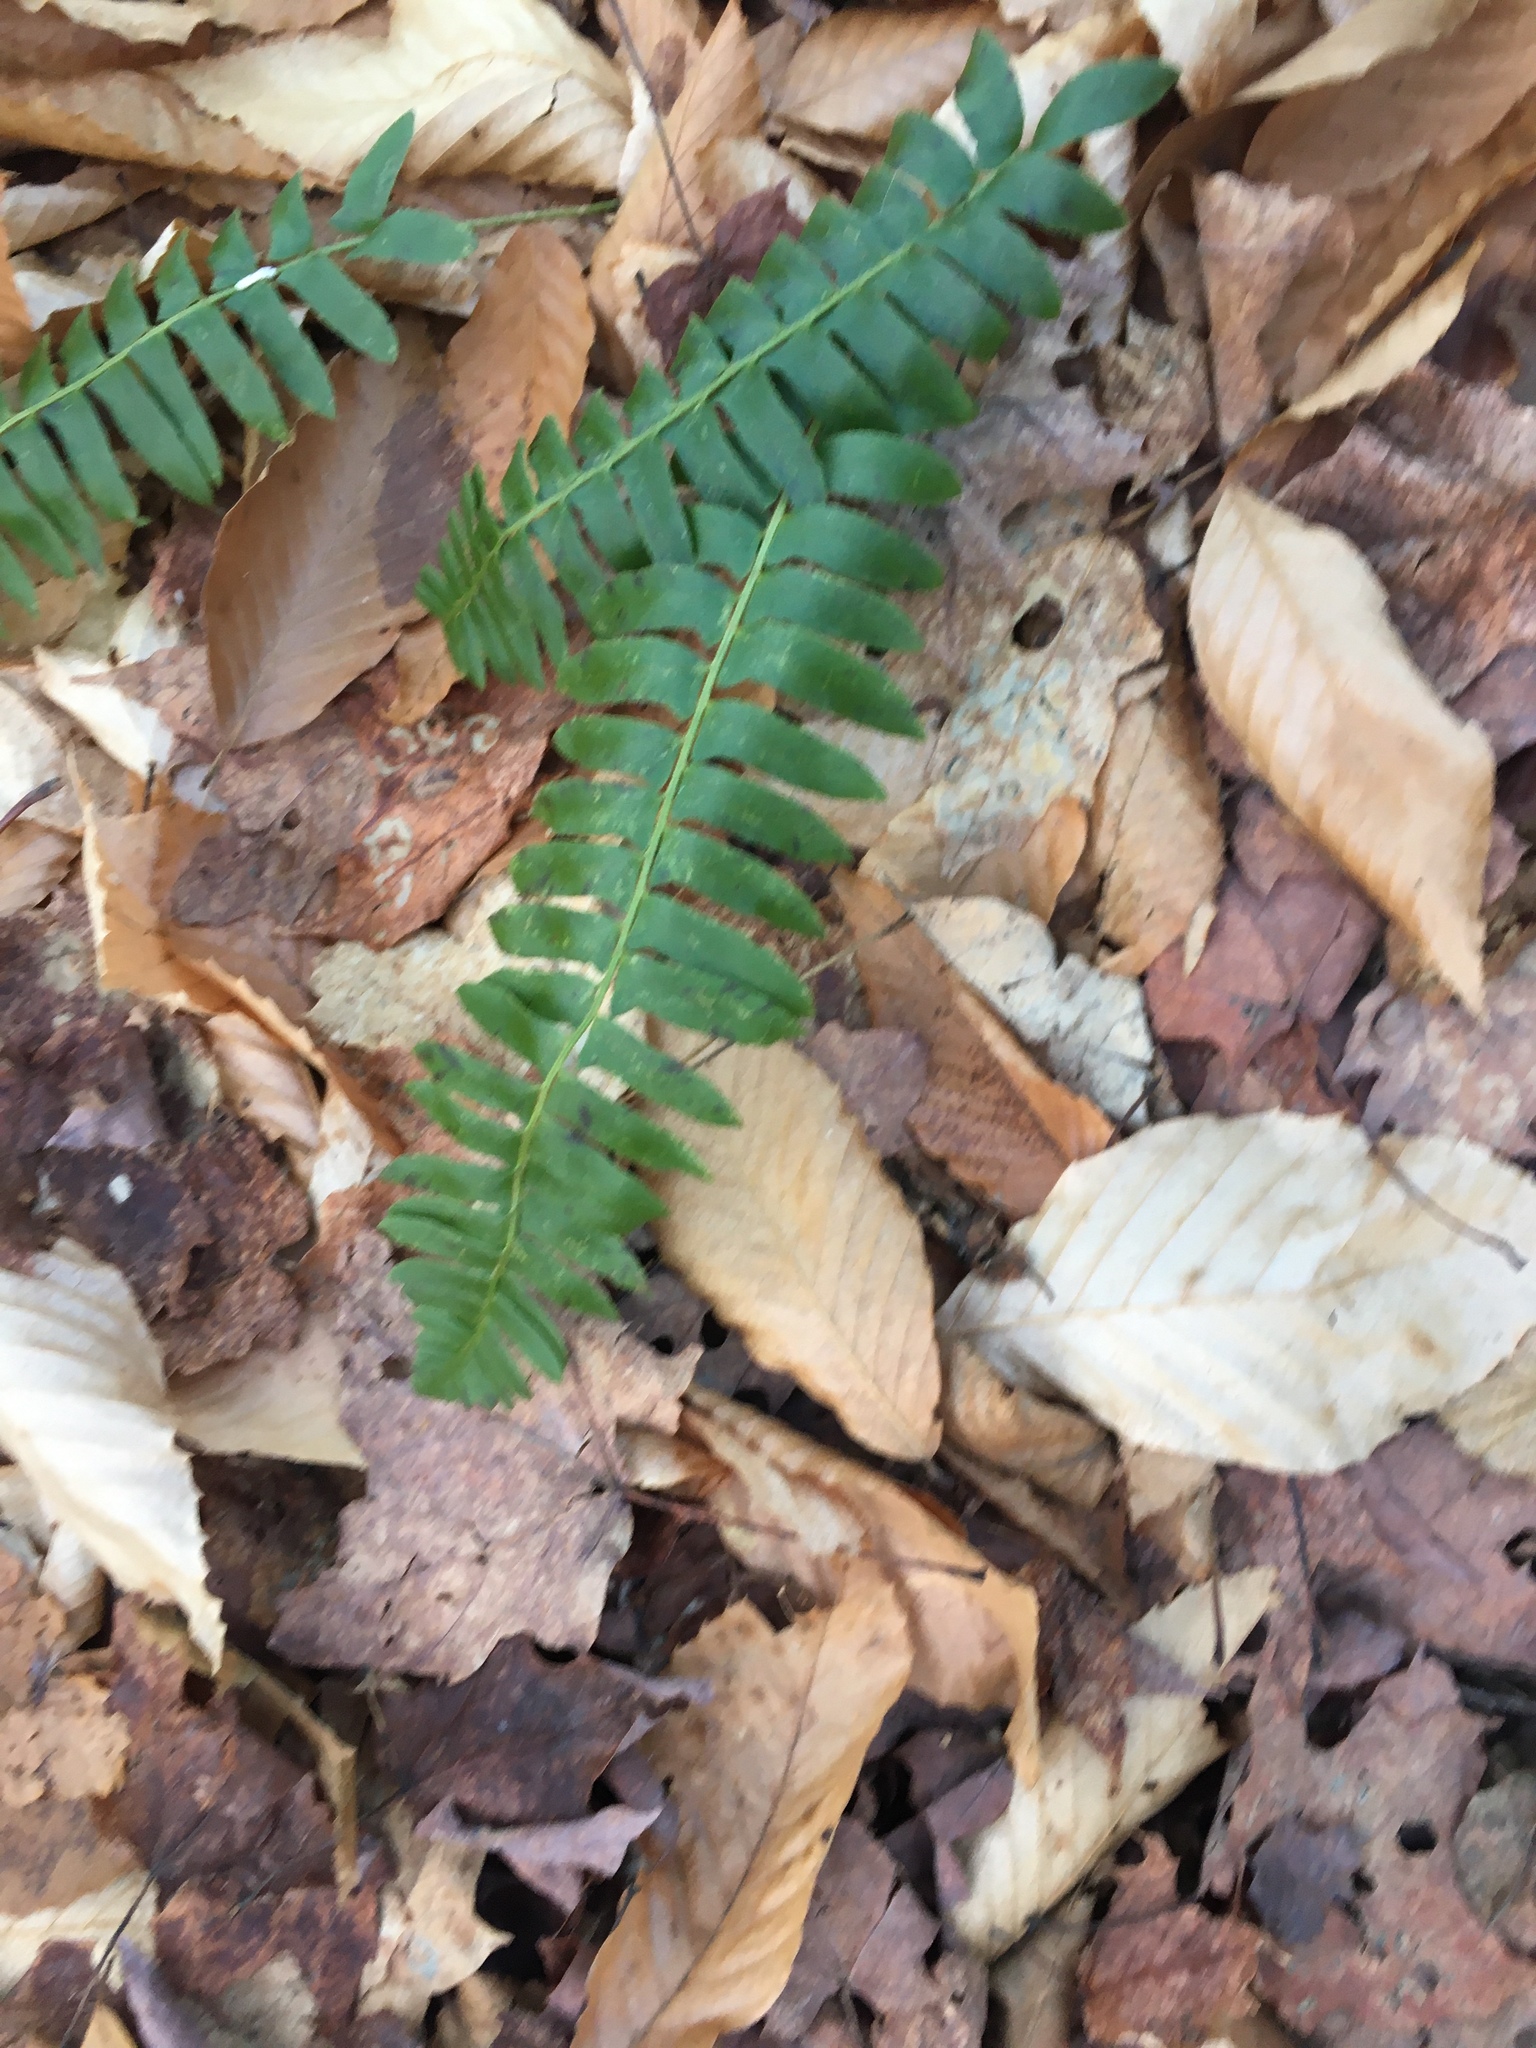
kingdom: Plantae
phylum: Tracheophyta
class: Polypodiopsida
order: Polypodiales
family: Dryopteridaceae
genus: Polystichum
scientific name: Polystichum acrostichoides
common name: Christmas fern
